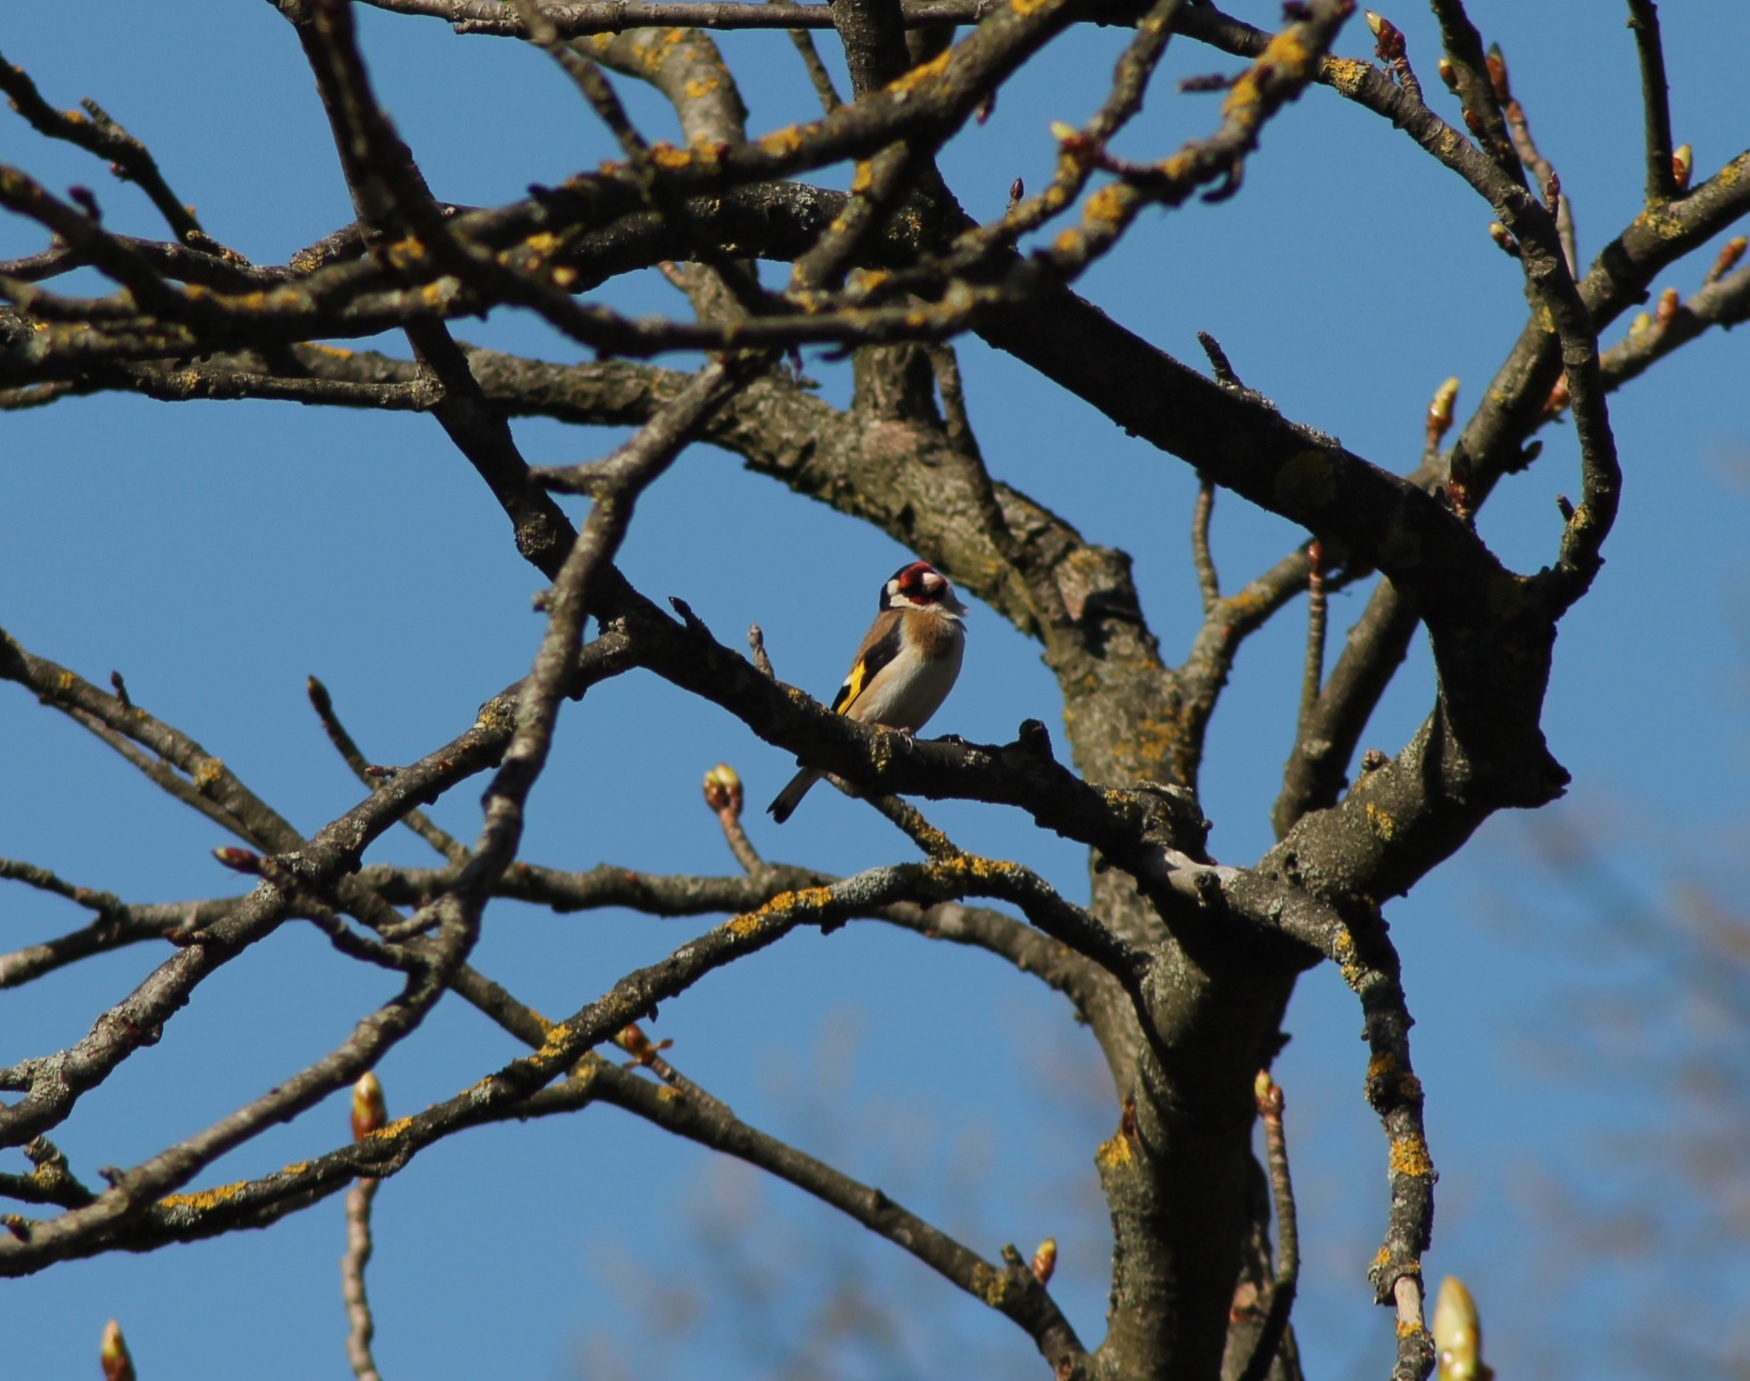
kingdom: Animalia
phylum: Chordata
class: Aves
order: Passeriformes
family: Fringillidae
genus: Carduelis
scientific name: Carduelis carduelis
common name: European goldfinch
